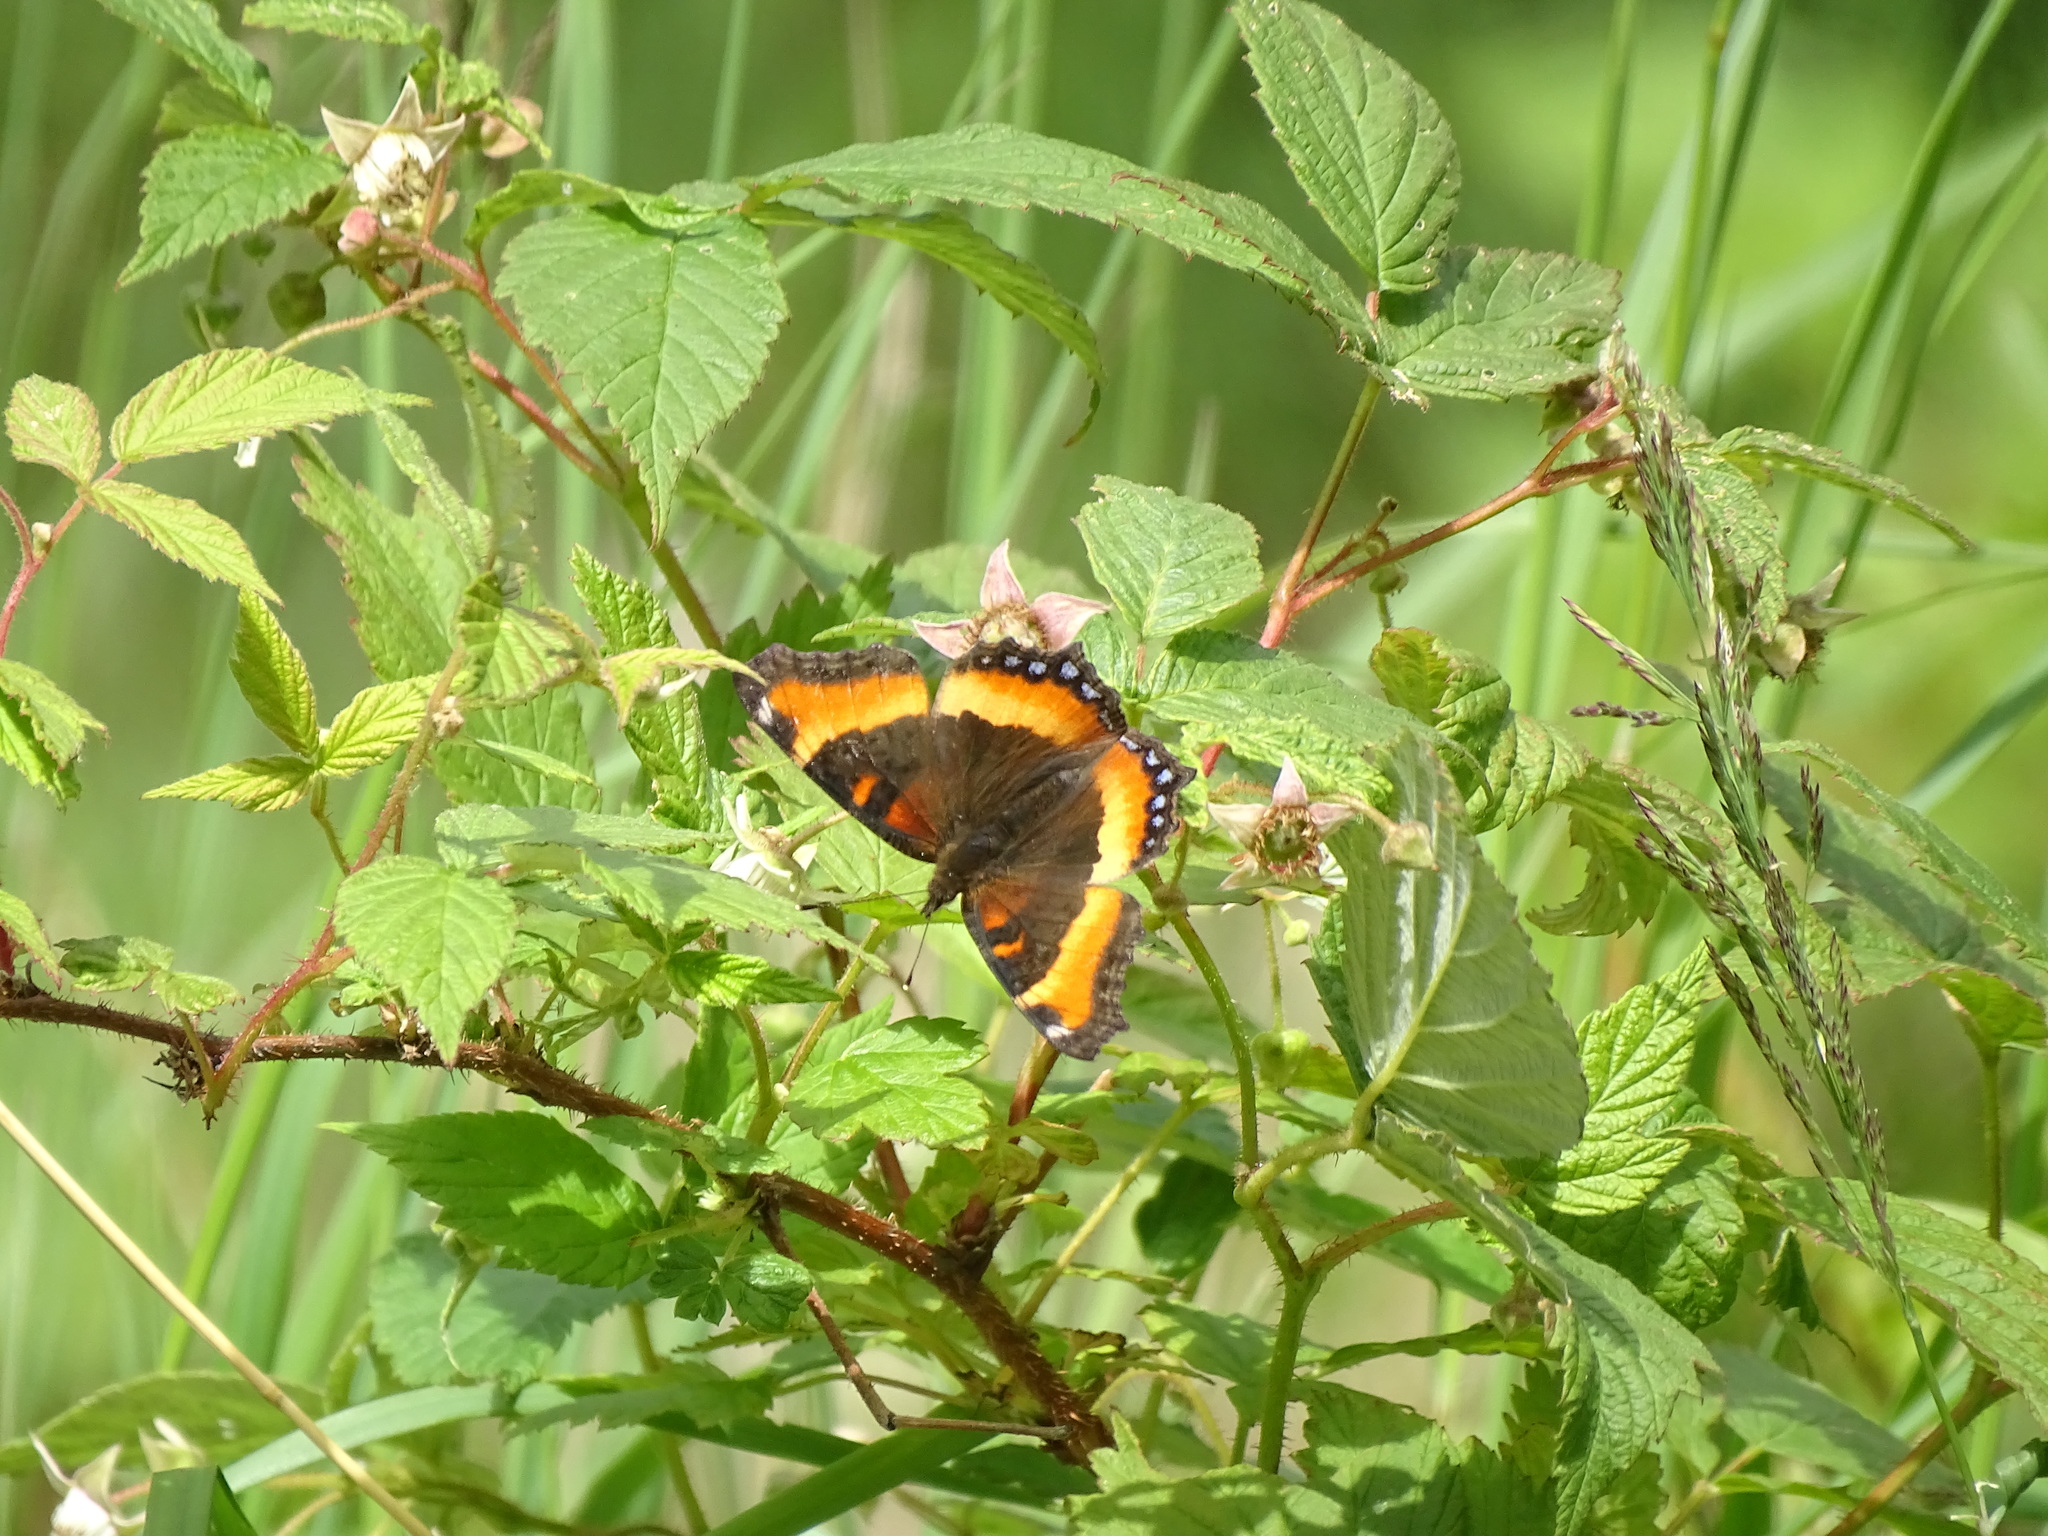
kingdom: Animalia
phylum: Arthropoda
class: Insecta
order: Lepidoptera
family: Nymphalidae
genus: Aglais
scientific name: Aglais milberti
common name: Milbert's tortoiseshell
